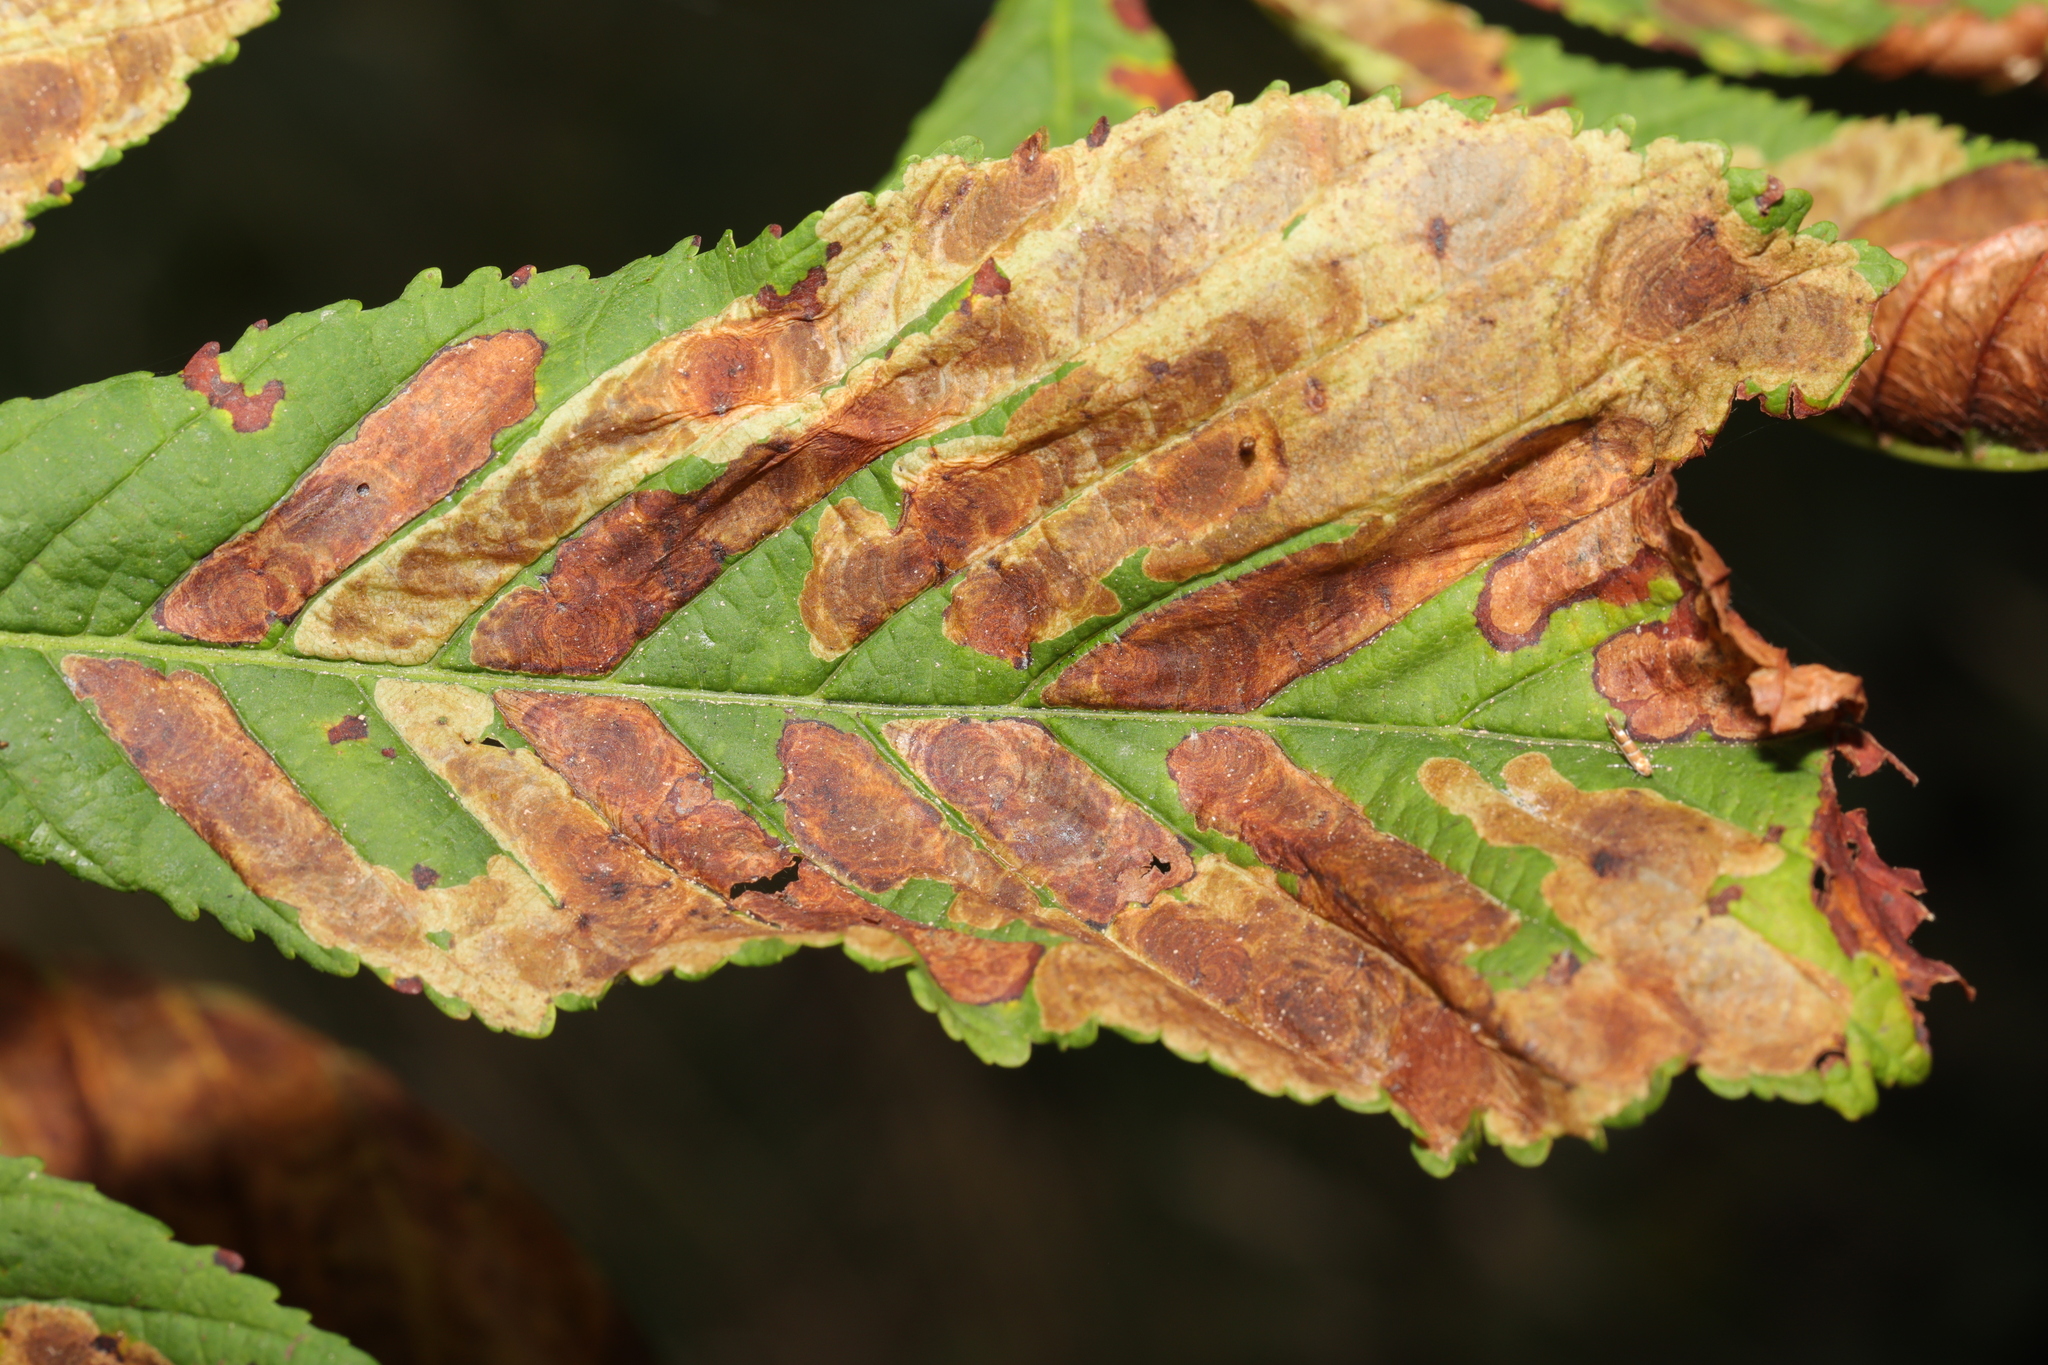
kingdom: Animalia
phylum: Arthropoda
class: Insecta
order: Lepidoptera
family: Gracillariidae
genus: Cameraria
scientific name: Cameraria ohridella
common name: Horse-chestnut leaf-miner
